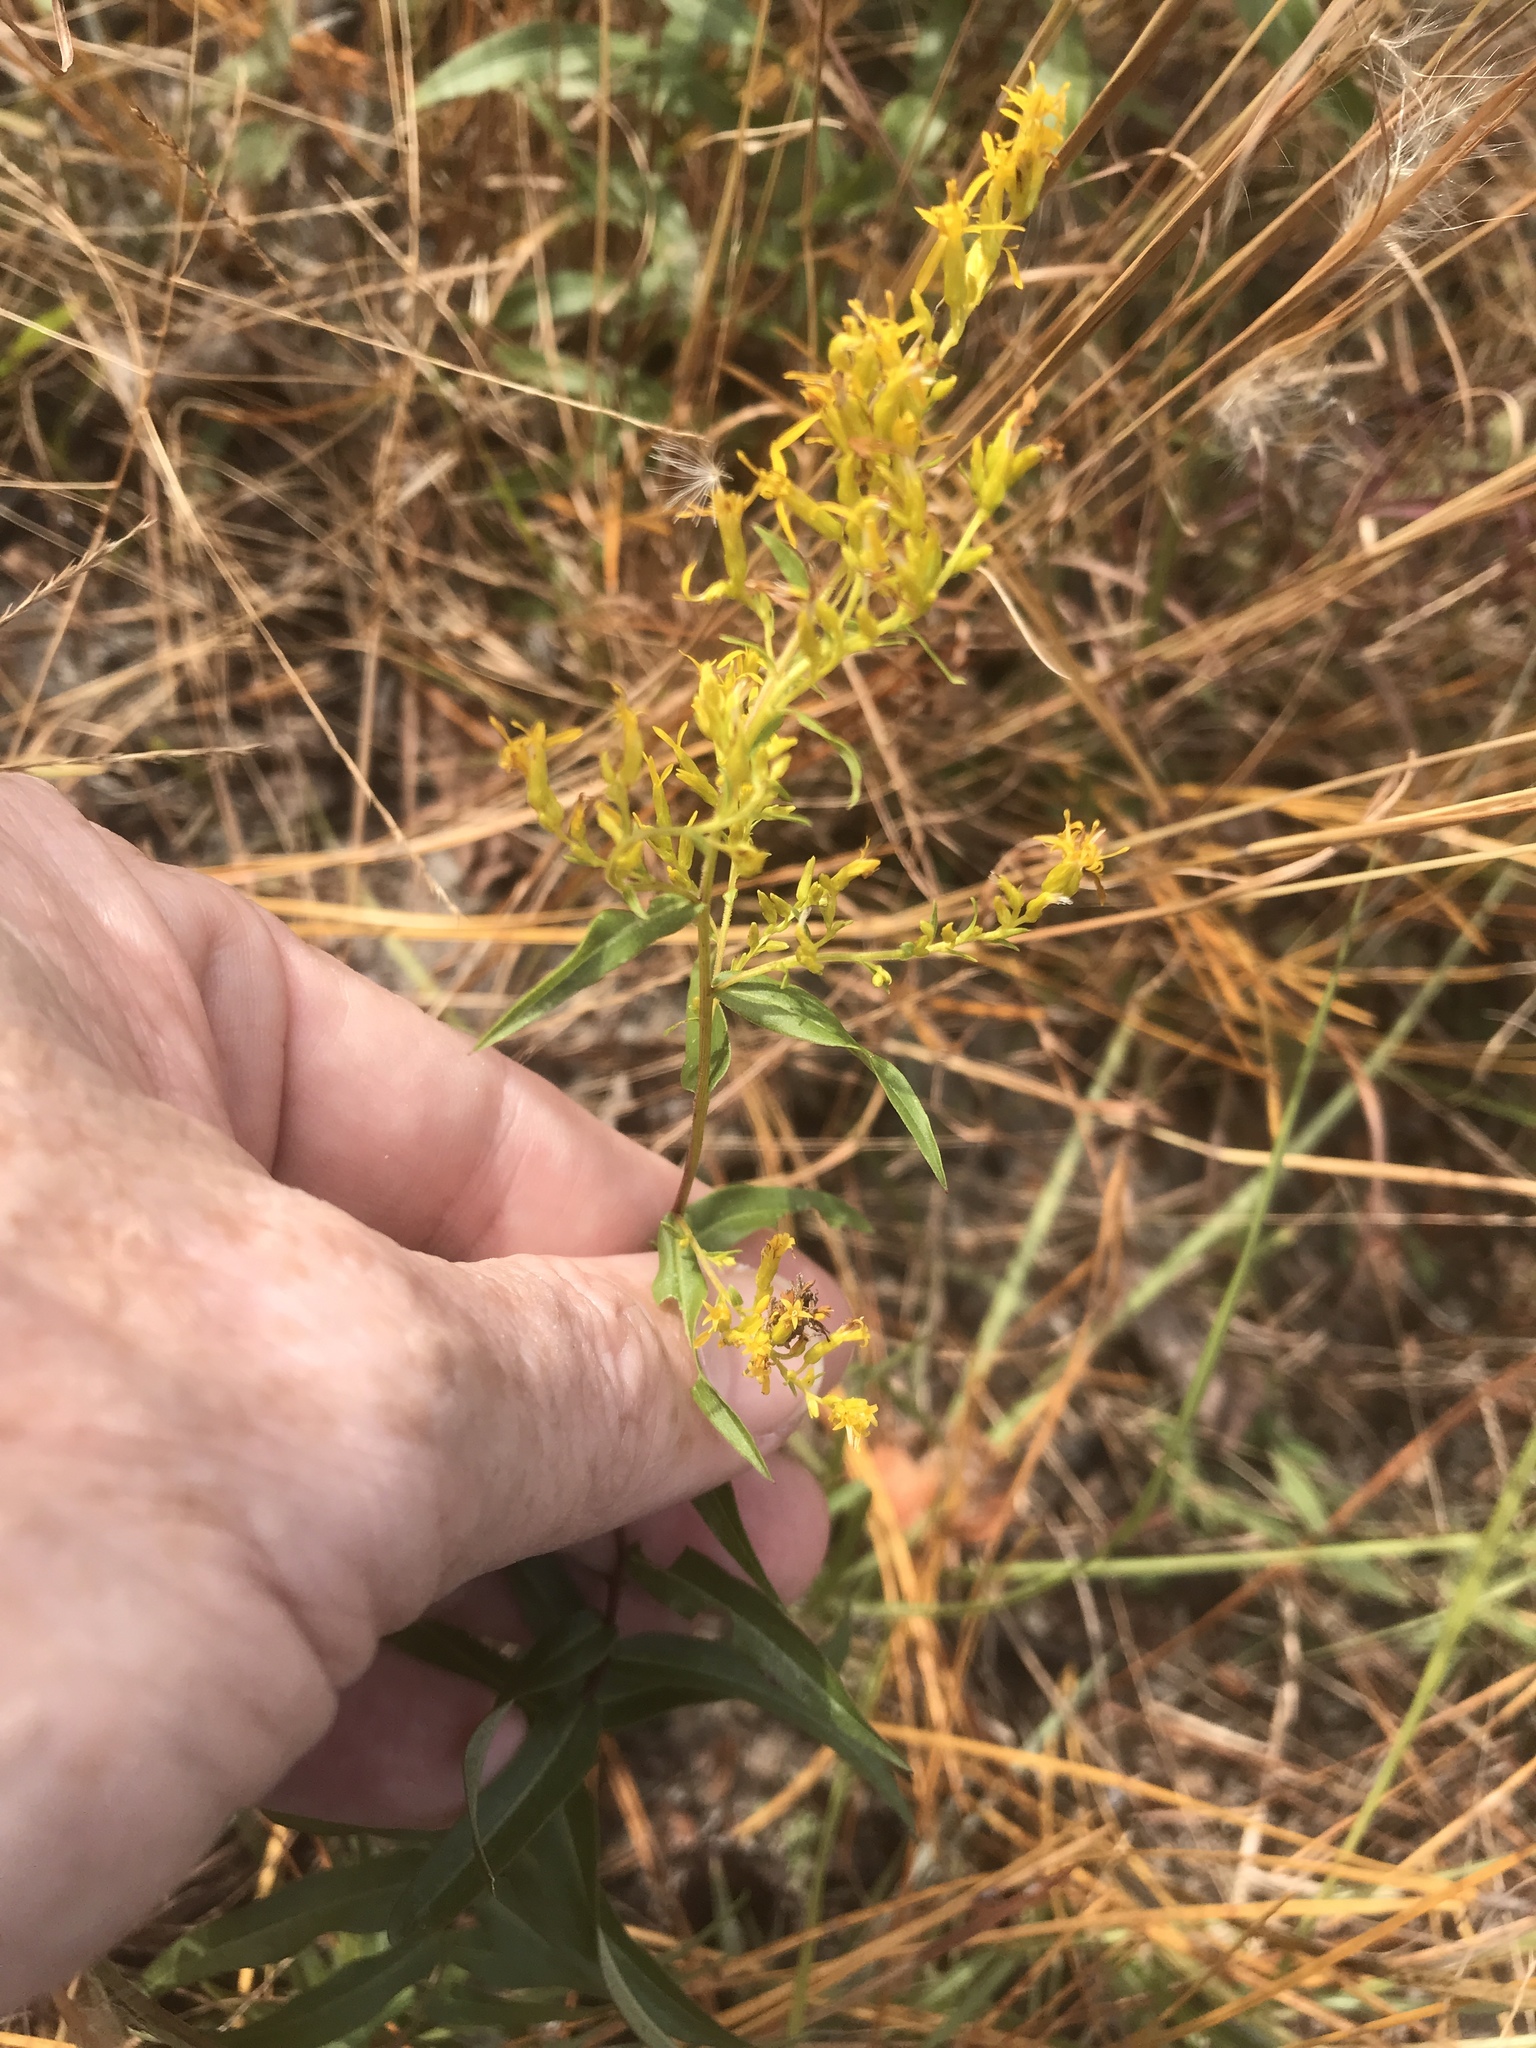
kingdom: Plantae
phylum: Tracheophyta
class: Magnoliopsida
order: Asterales
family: Asteraceae
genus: Solidago
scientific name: Solidago odora
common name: Anise-scented goldenrod
